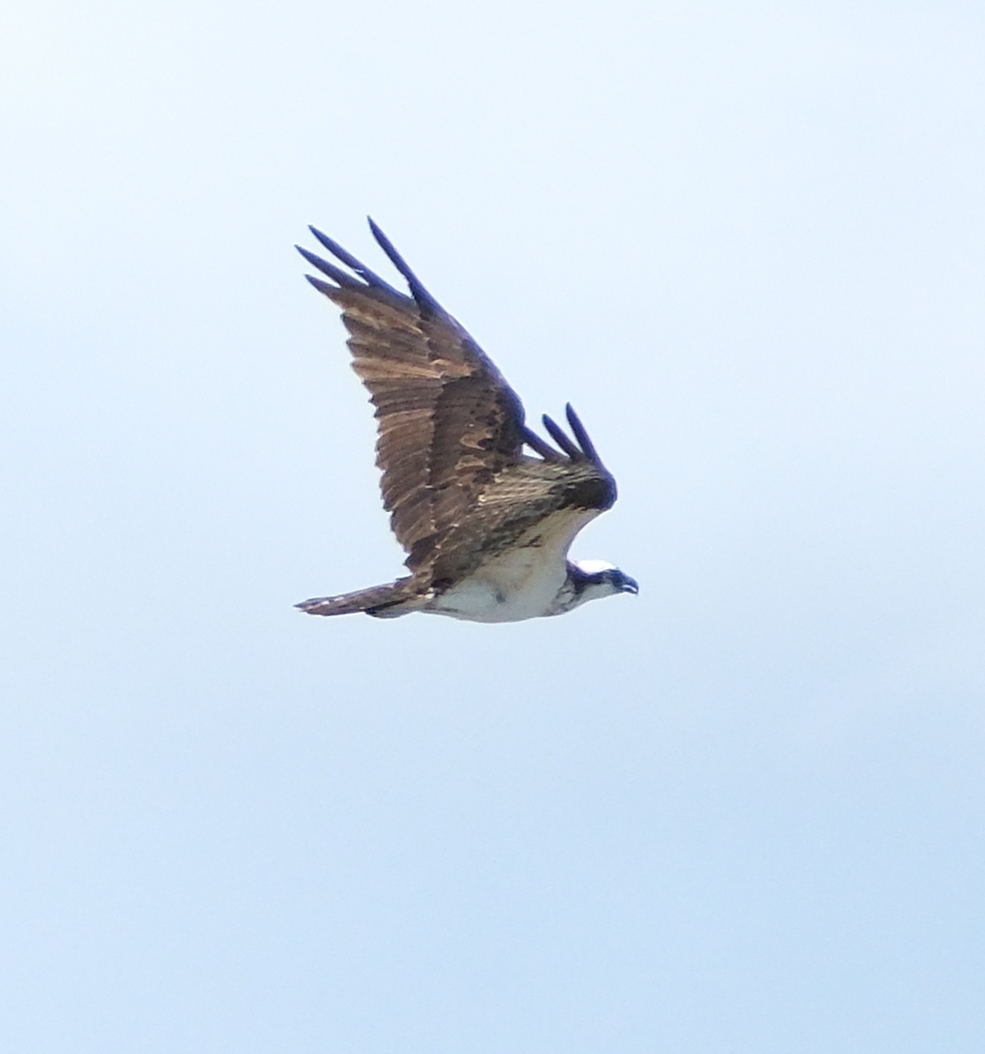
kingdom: Animalia
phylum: Chordata
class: Aves
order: Accipitriformes
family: Pandionidae
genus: Pandion
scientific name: Pandion haliaetus
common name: Osprey
